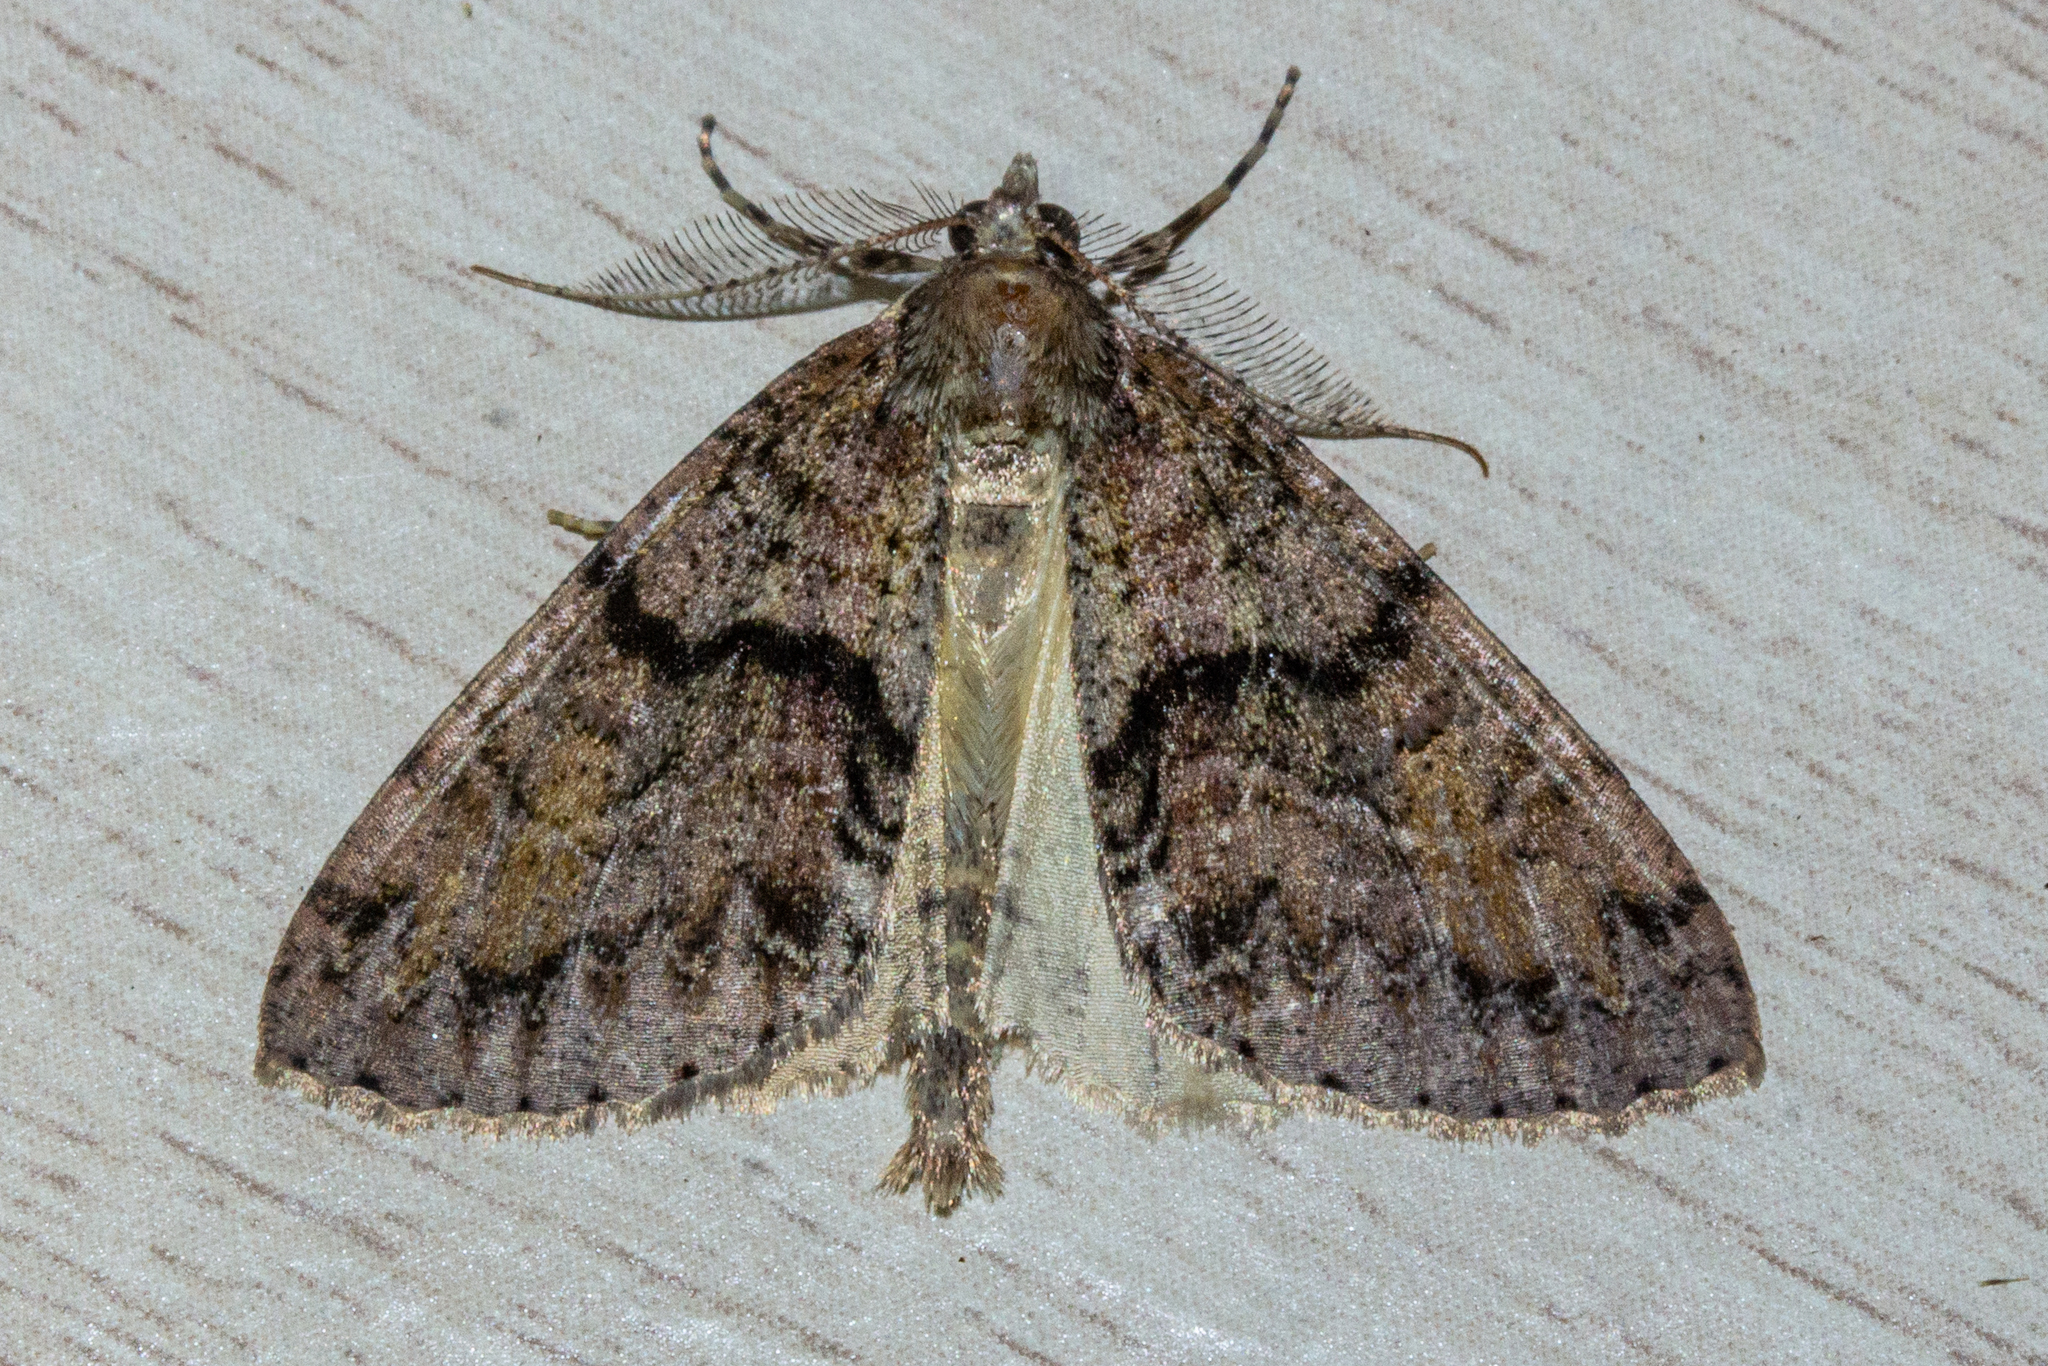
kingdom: Animalia
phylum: Arthropoda
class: Insecta
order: Lepidoptera
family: Geometridae
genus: Pseudocoremia
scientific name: Pseudocoremia suavis
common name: Common forest looper
